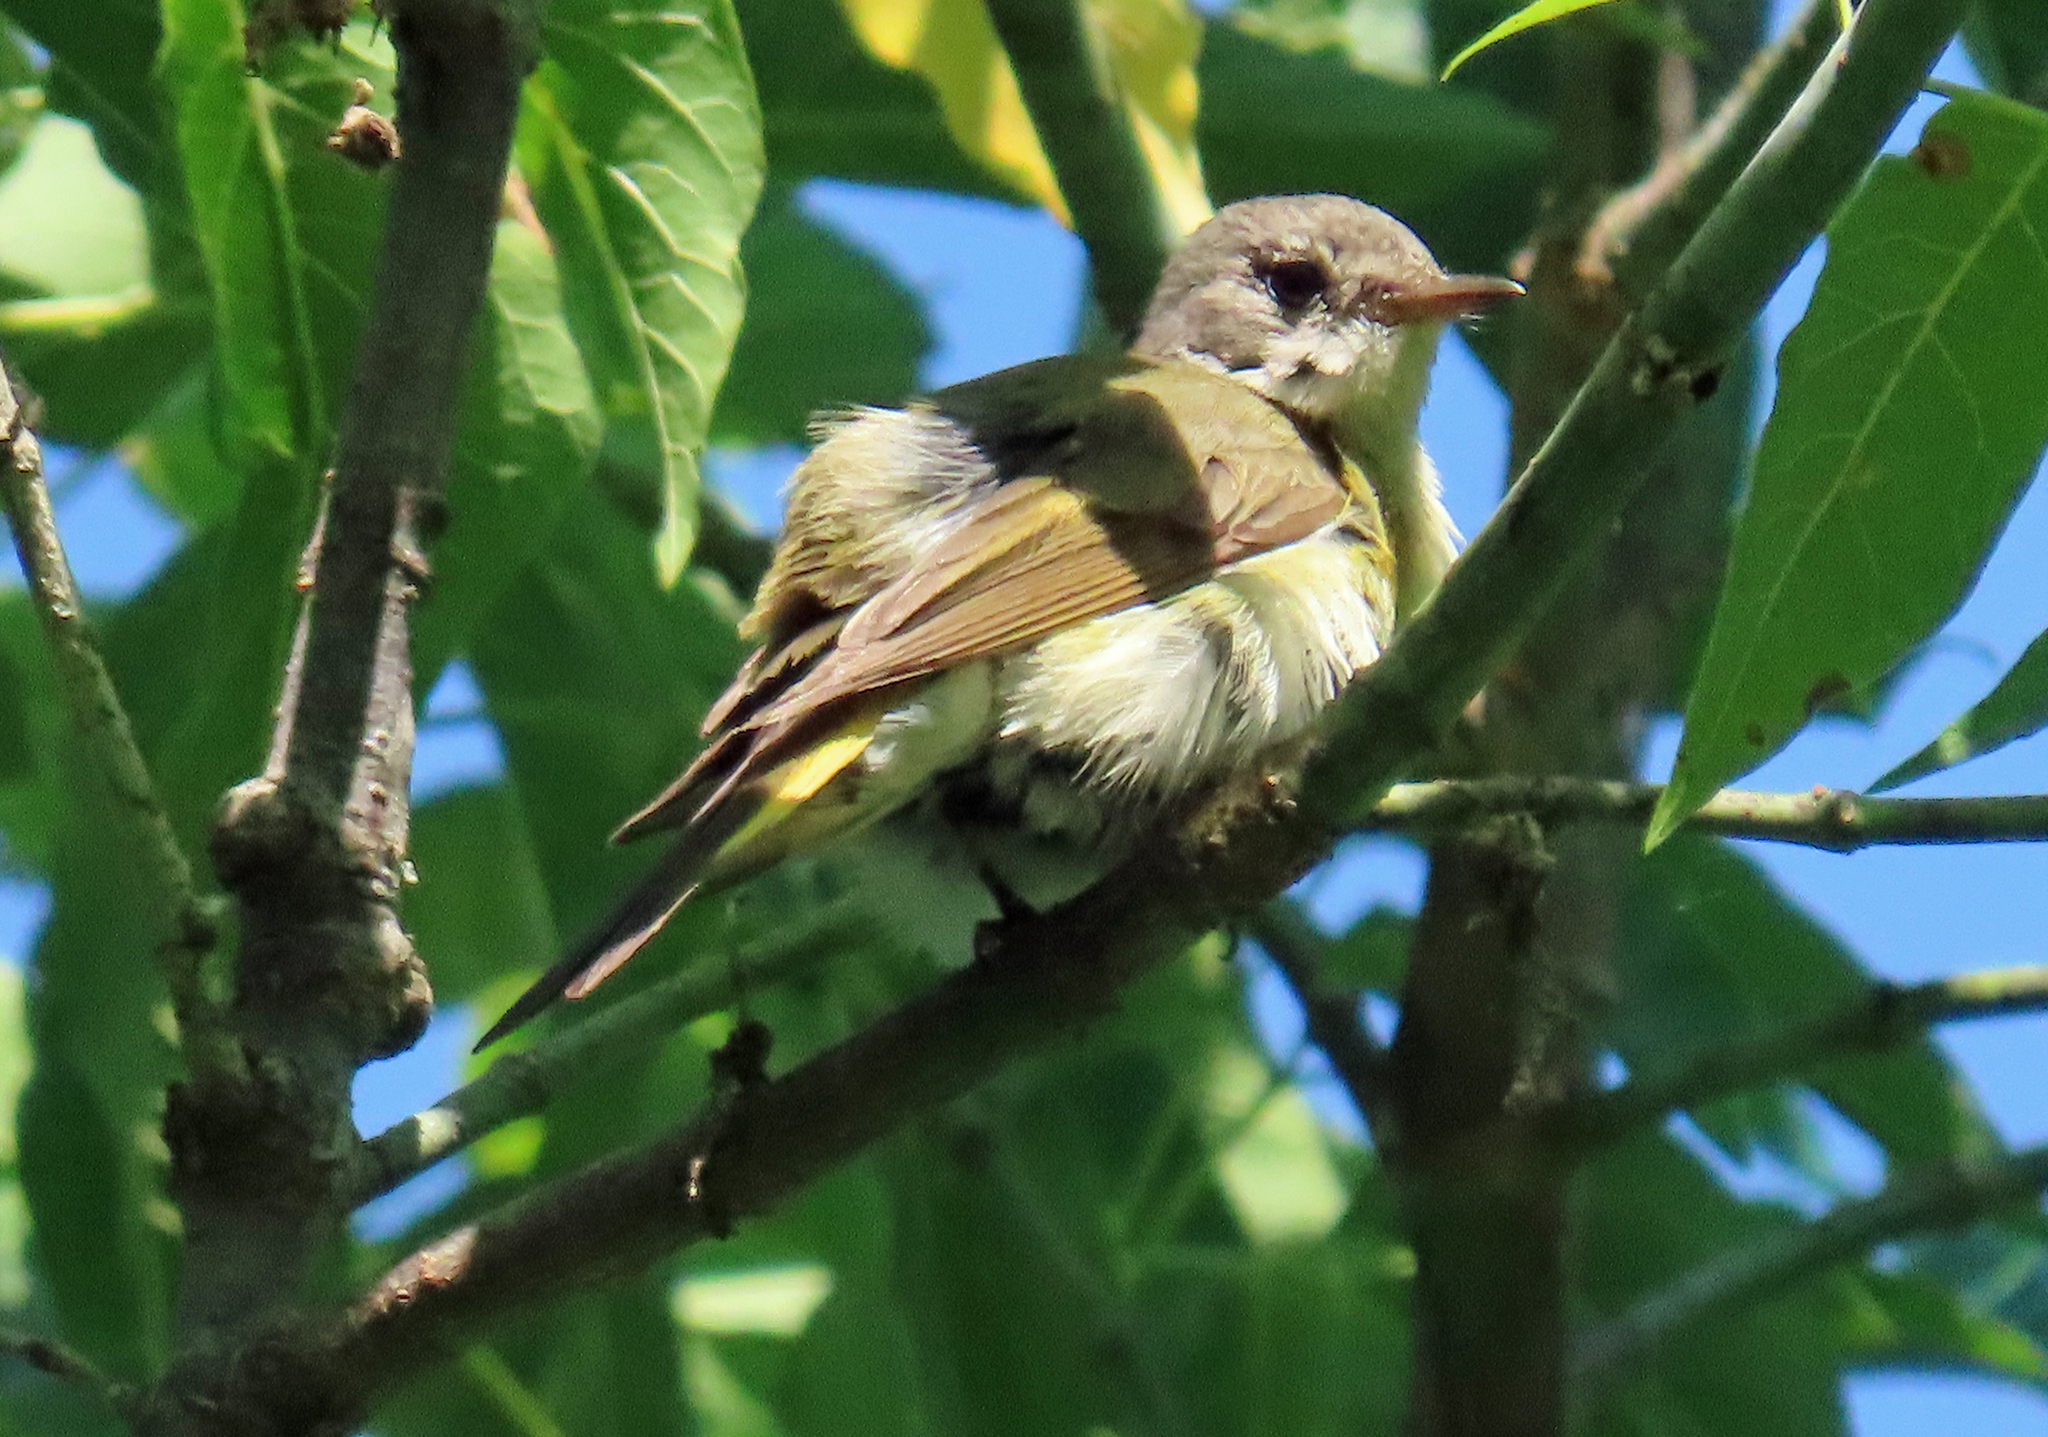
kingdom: Animalia
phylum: Chordata
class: Aves
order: Passeriformes
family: Parulidae
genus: Setophaga
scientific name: Setophaga ruticilla
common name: American redstart
